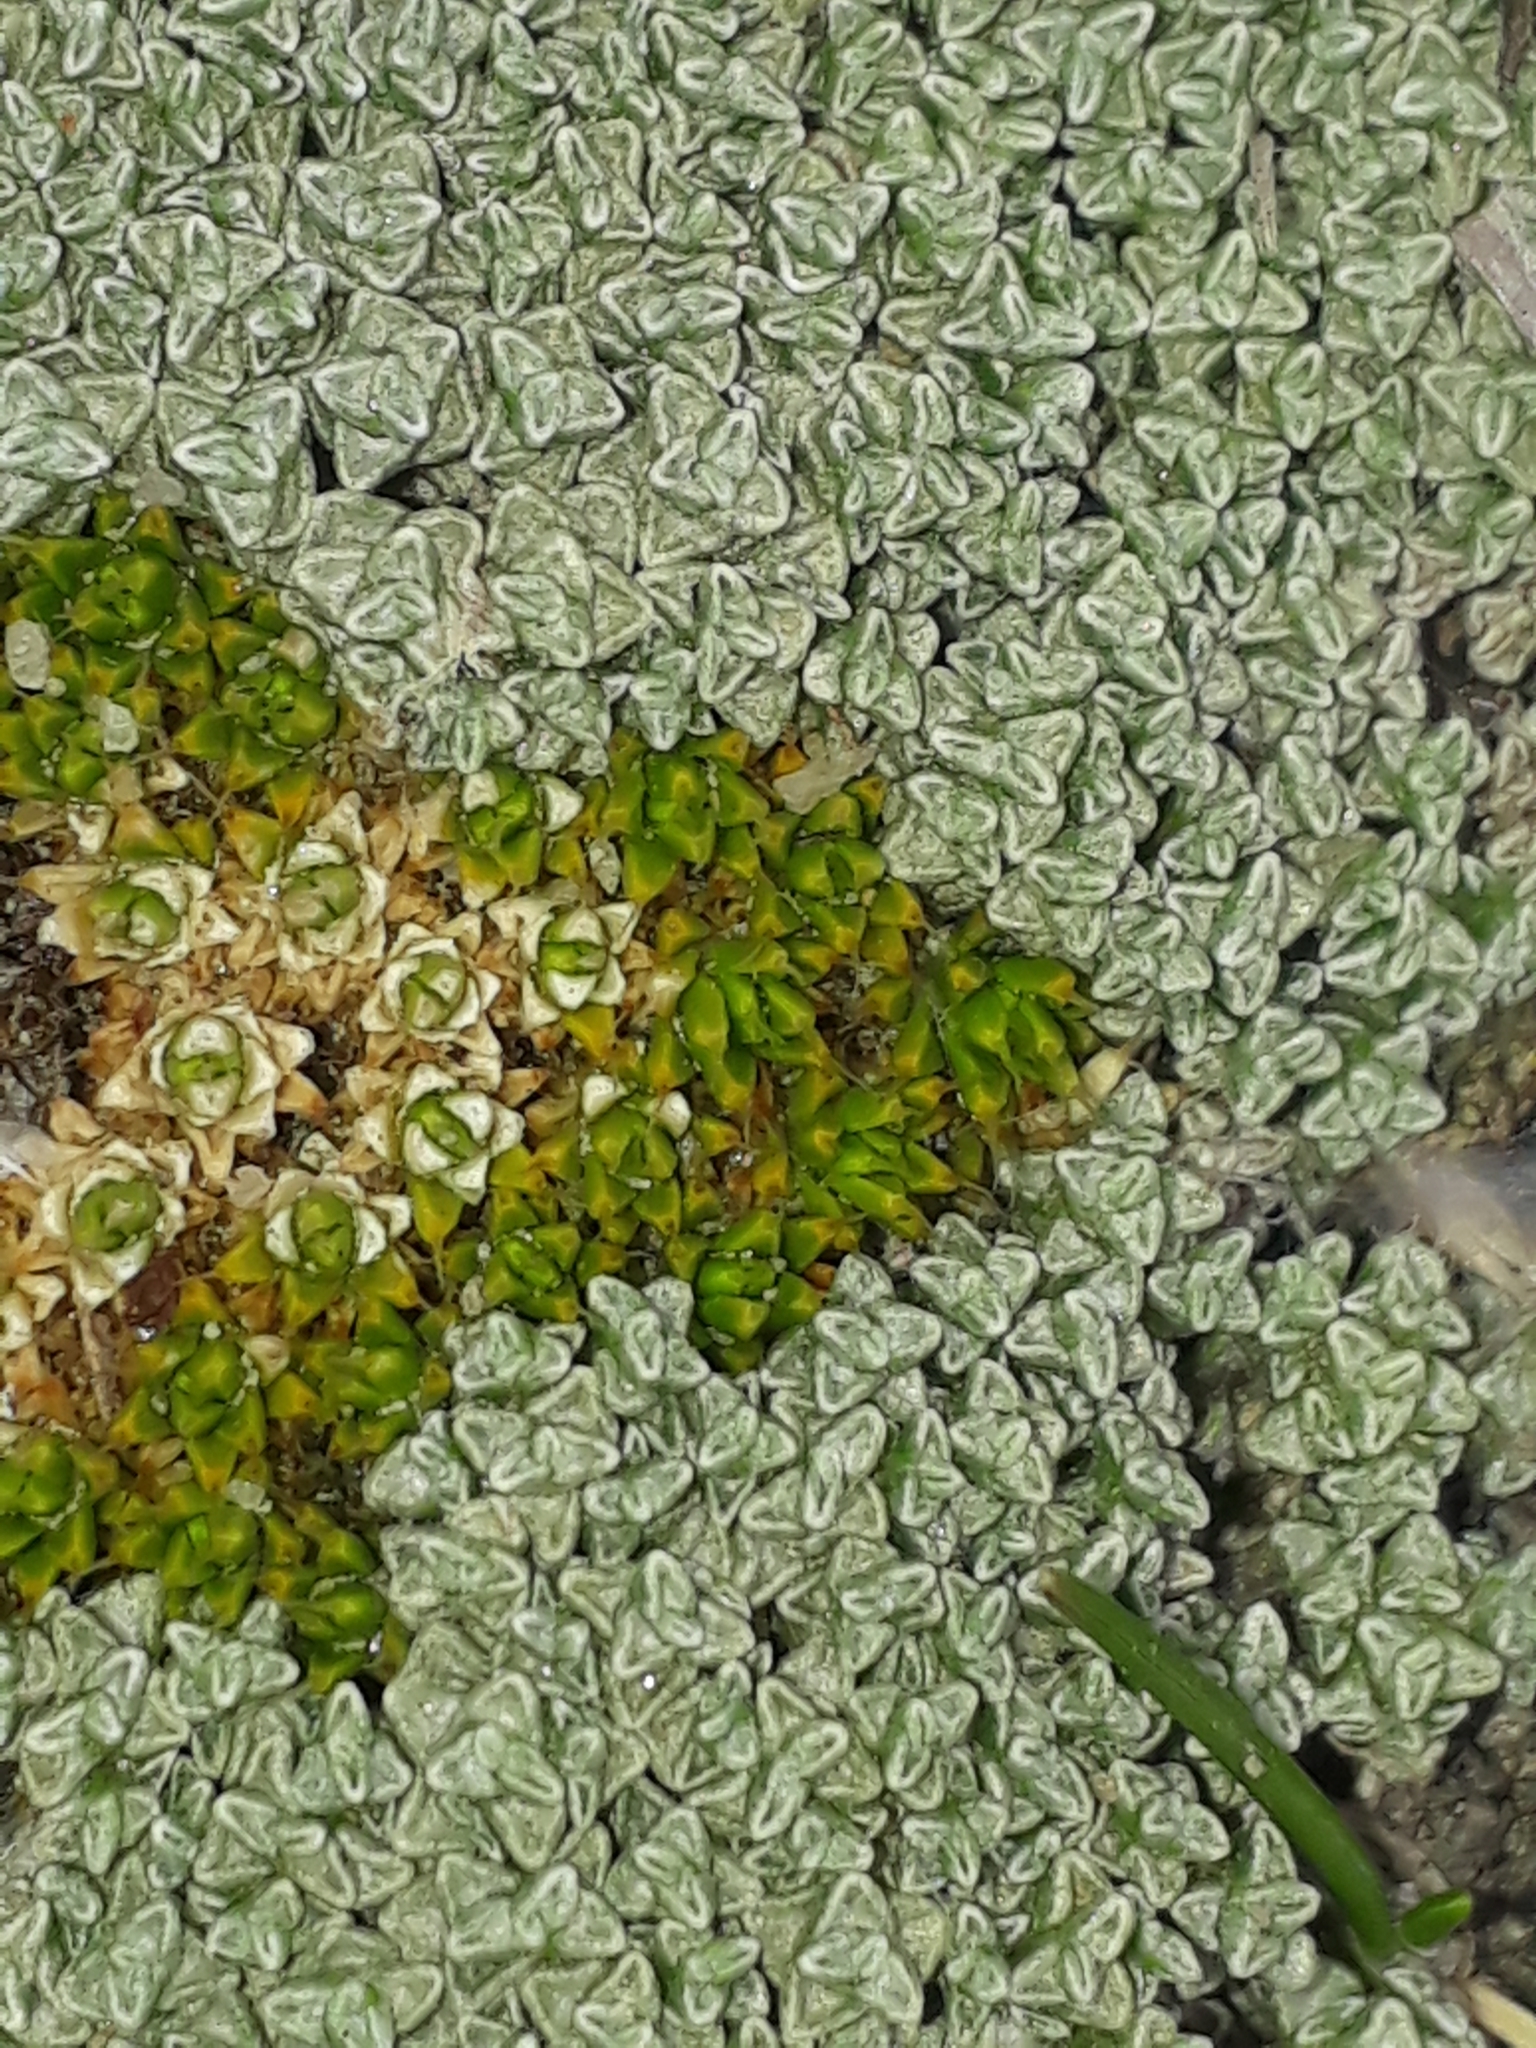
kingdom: Plantae
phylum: Tracheophyta
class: Magnoliopsida
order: Caryophyllales
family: Caryophyllaceae
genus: Colobanthus
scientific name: Colobanthus brevisepalus
